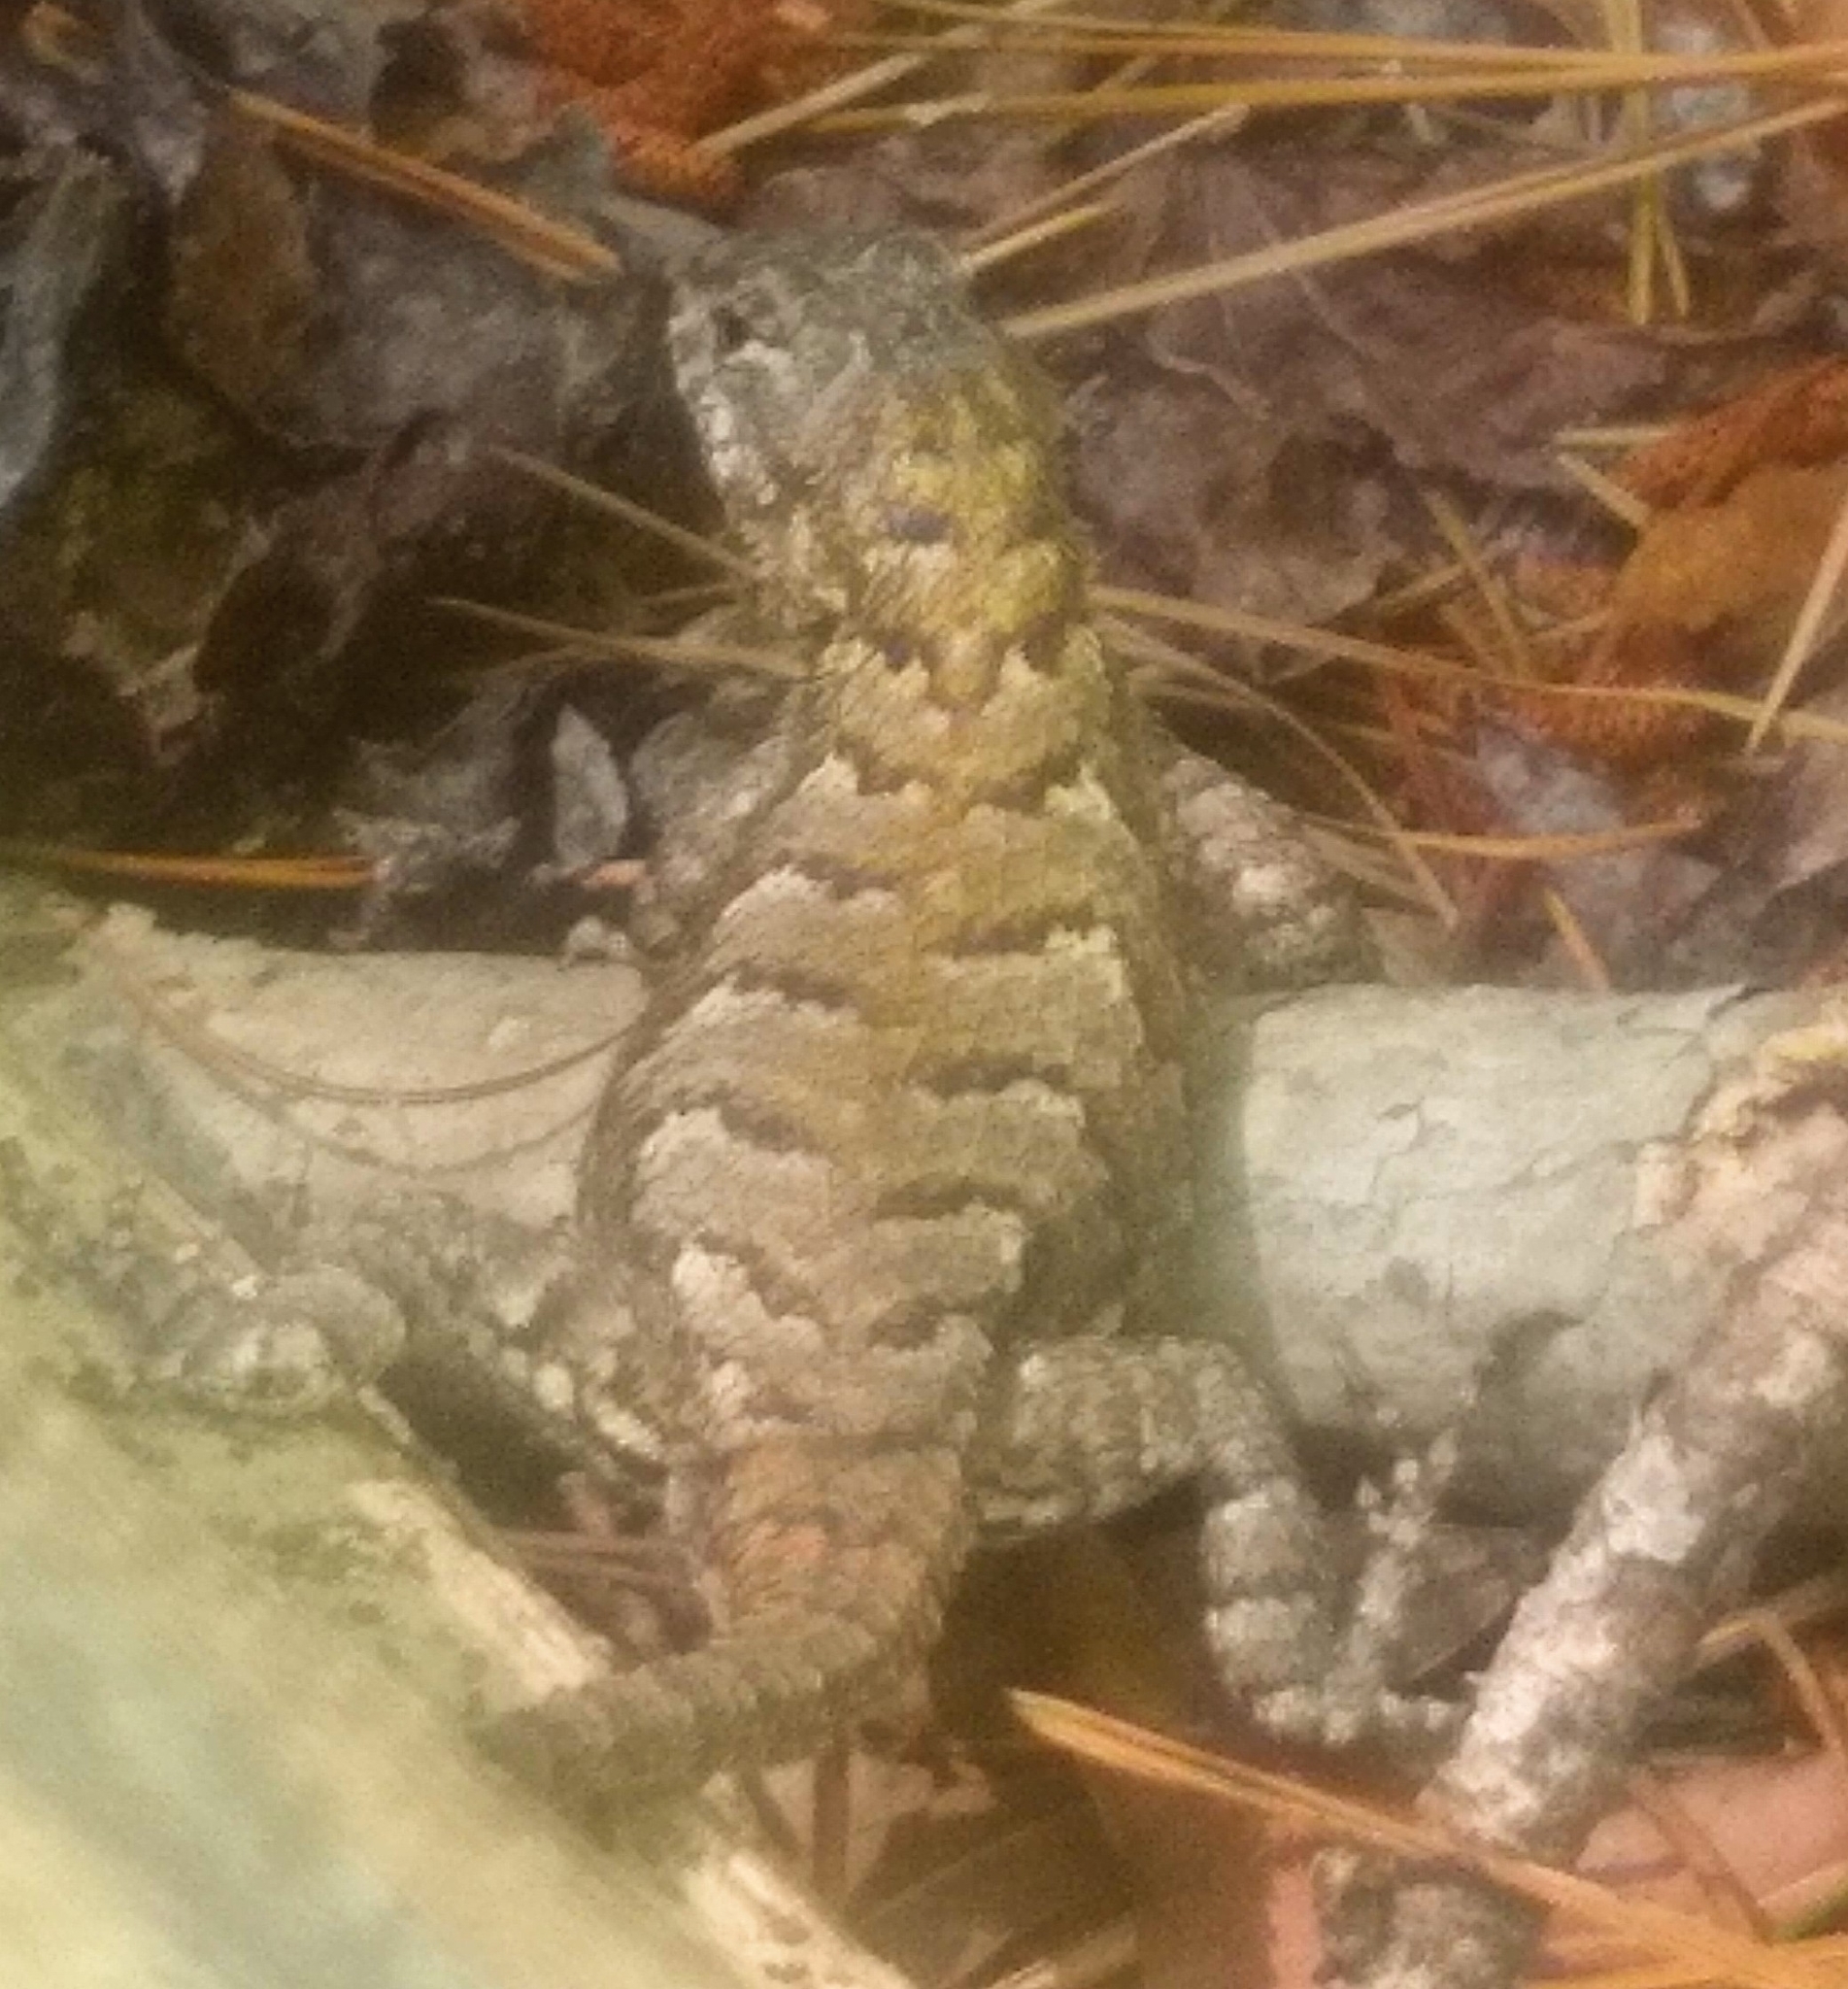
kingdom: Animalia
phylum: Chordata
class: Squamata
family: Phrynosomatidae
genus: Sceloporus
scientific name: Sceloporus undulatus
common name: Eastern fence lizard
